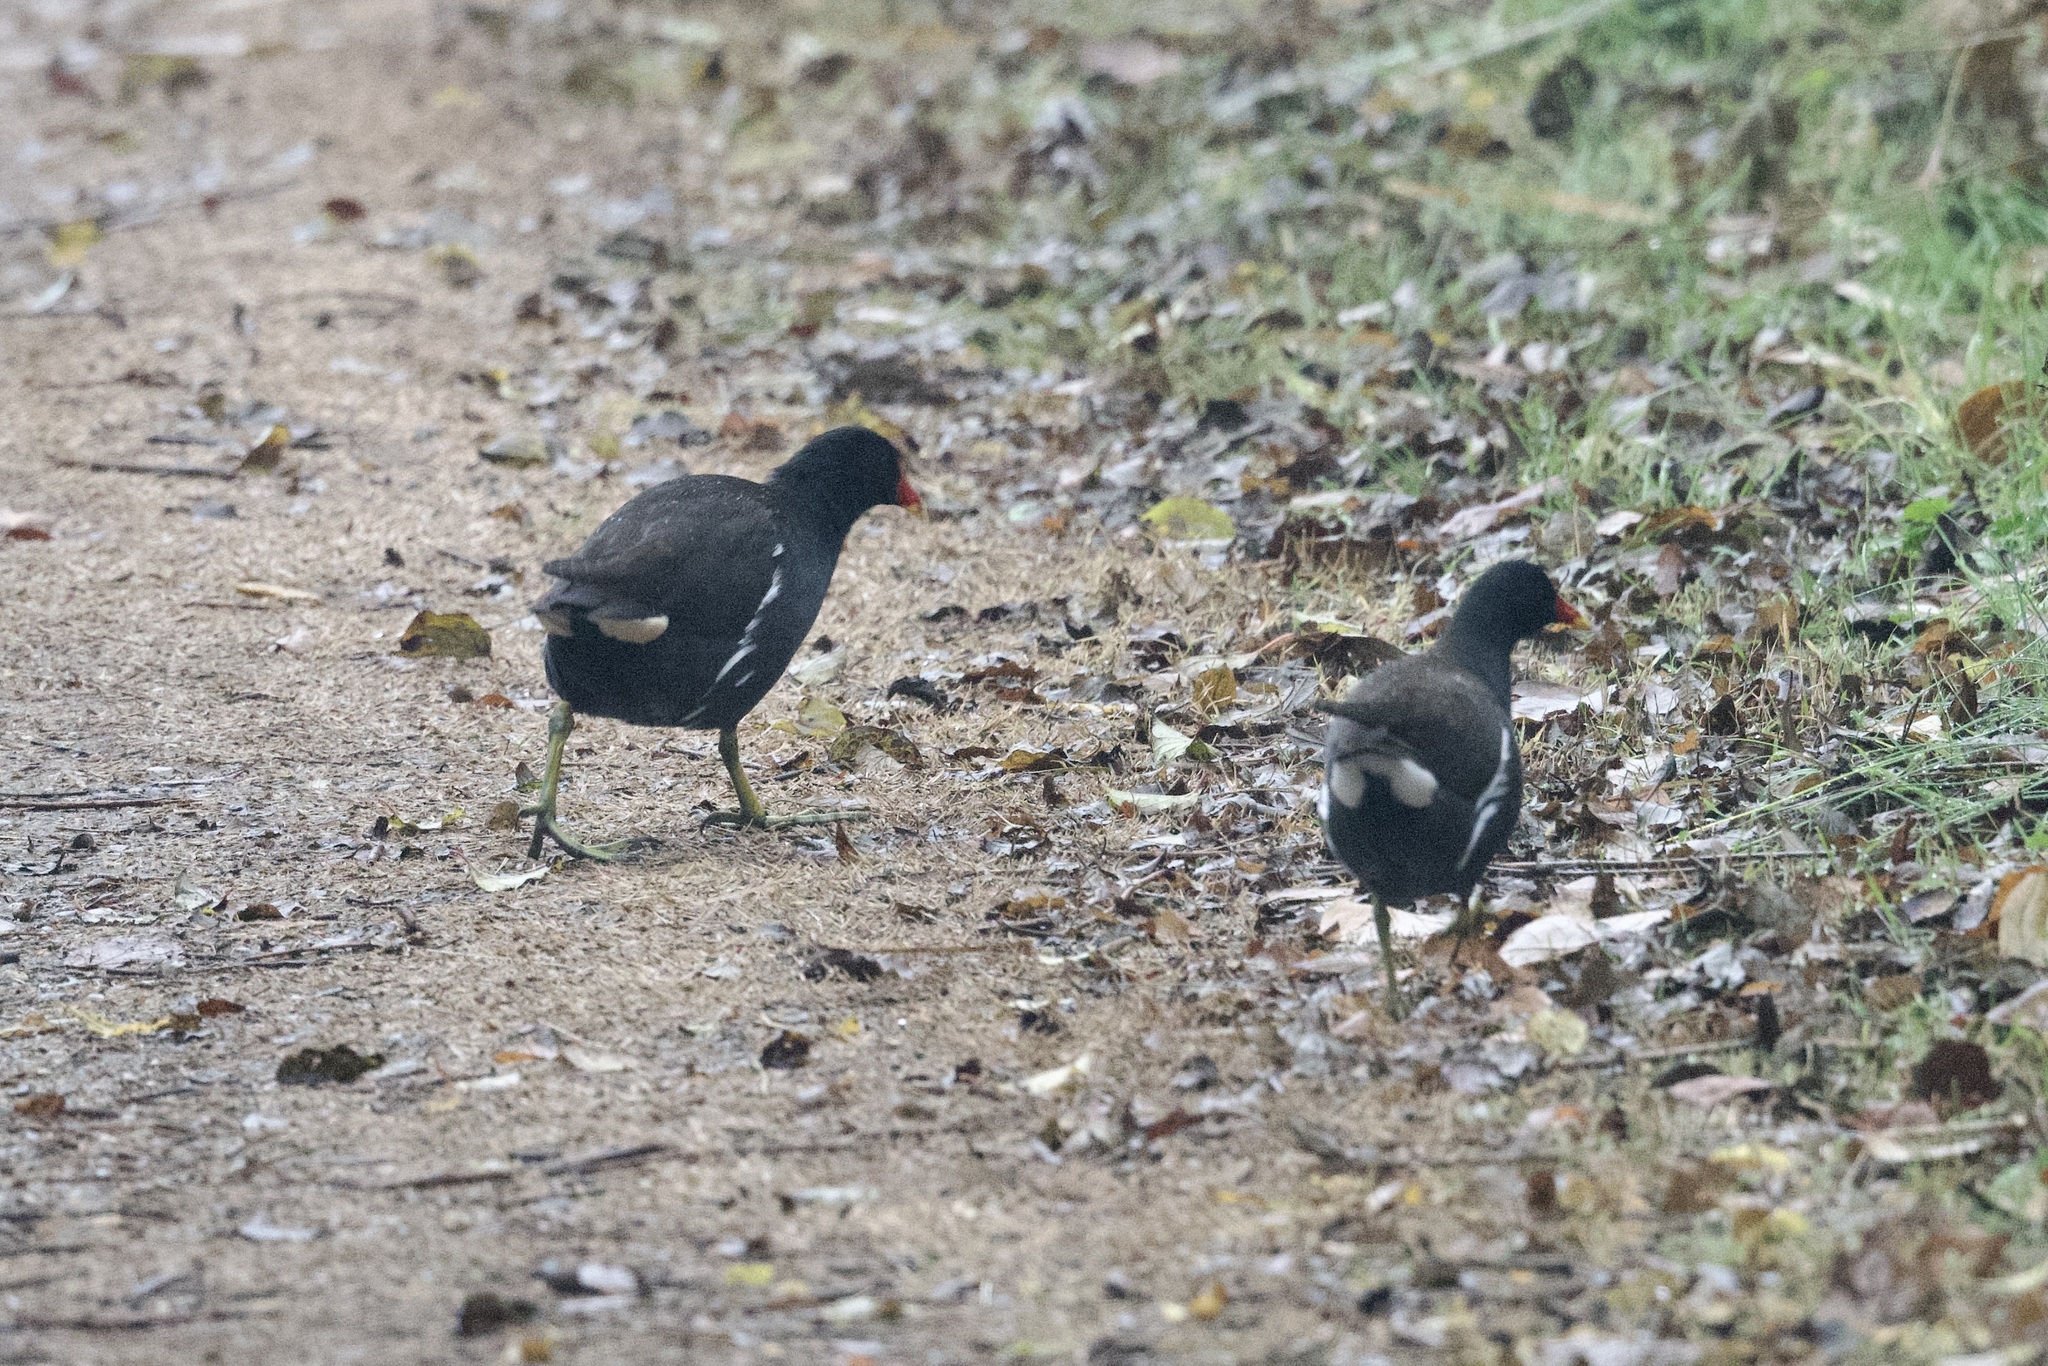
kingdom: Animalia
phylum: Chordata
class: Aves
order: Gruiformes
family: Rallidae
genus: Gallinula
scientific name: Gallinula chloropus
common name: Common moorhen
